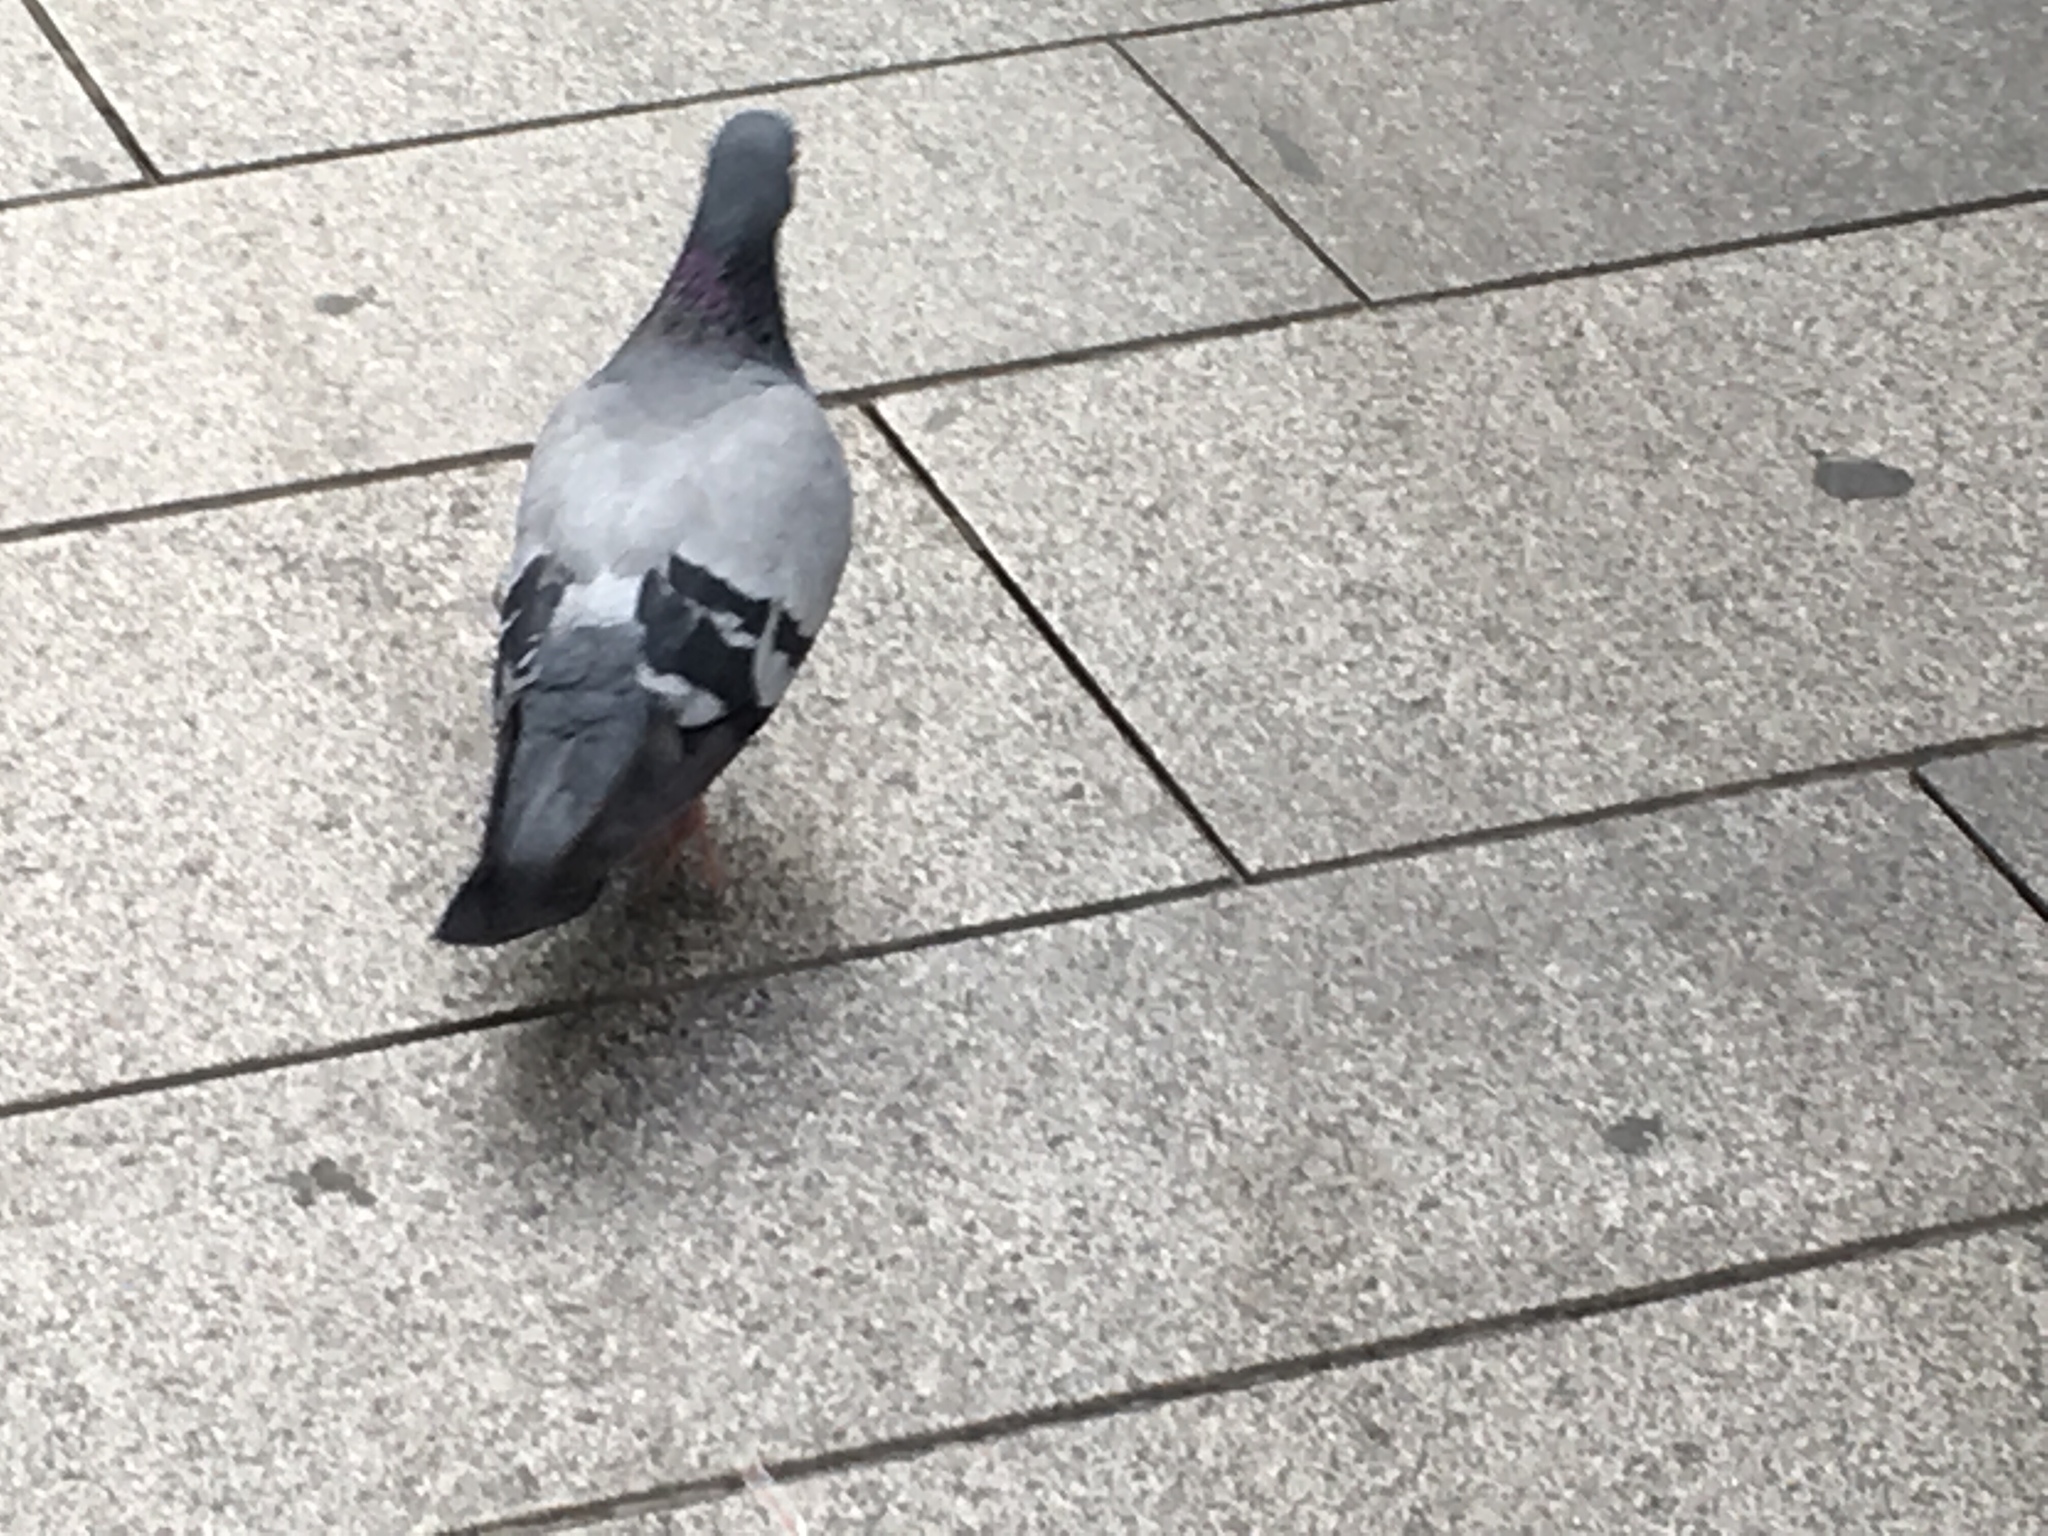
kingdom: Animalia
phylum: Chordata
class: Aves
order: Columbiformes
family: Columbidae
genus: Columba
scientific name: Columba livia
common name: Rock pigeon
